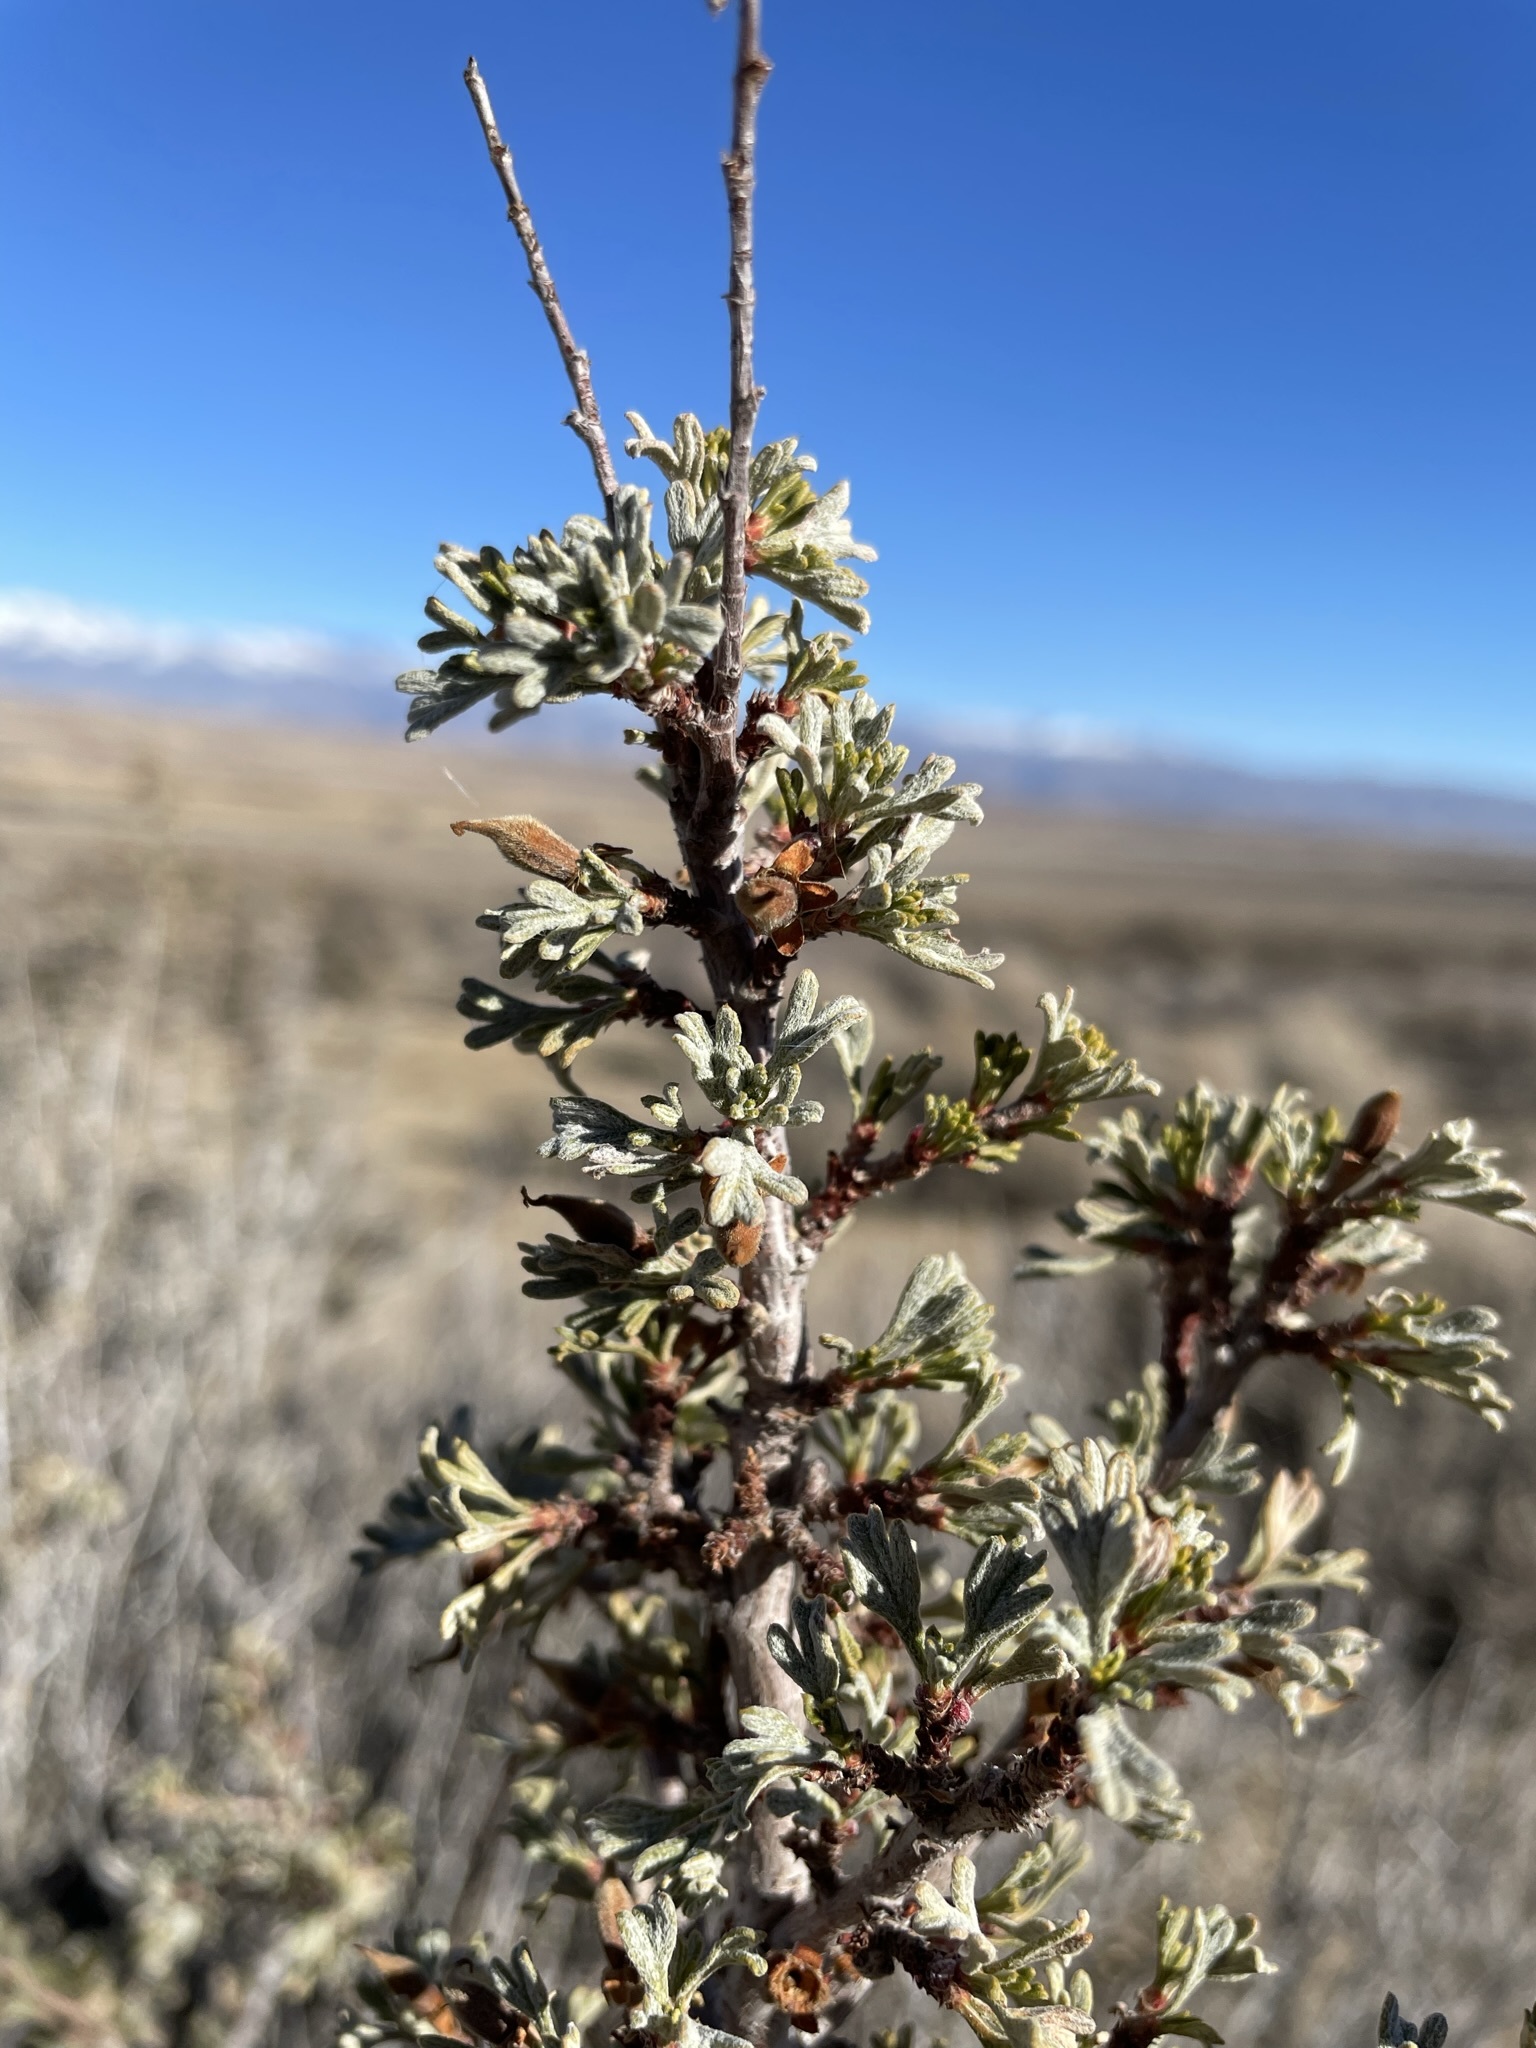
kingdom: Plantae
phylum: Tracheophyta
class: Magnoliopsida
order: Rosales
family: Rosaceae
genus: Purshia
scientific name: Purshia tridentata
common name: Antelope bitterbrush
